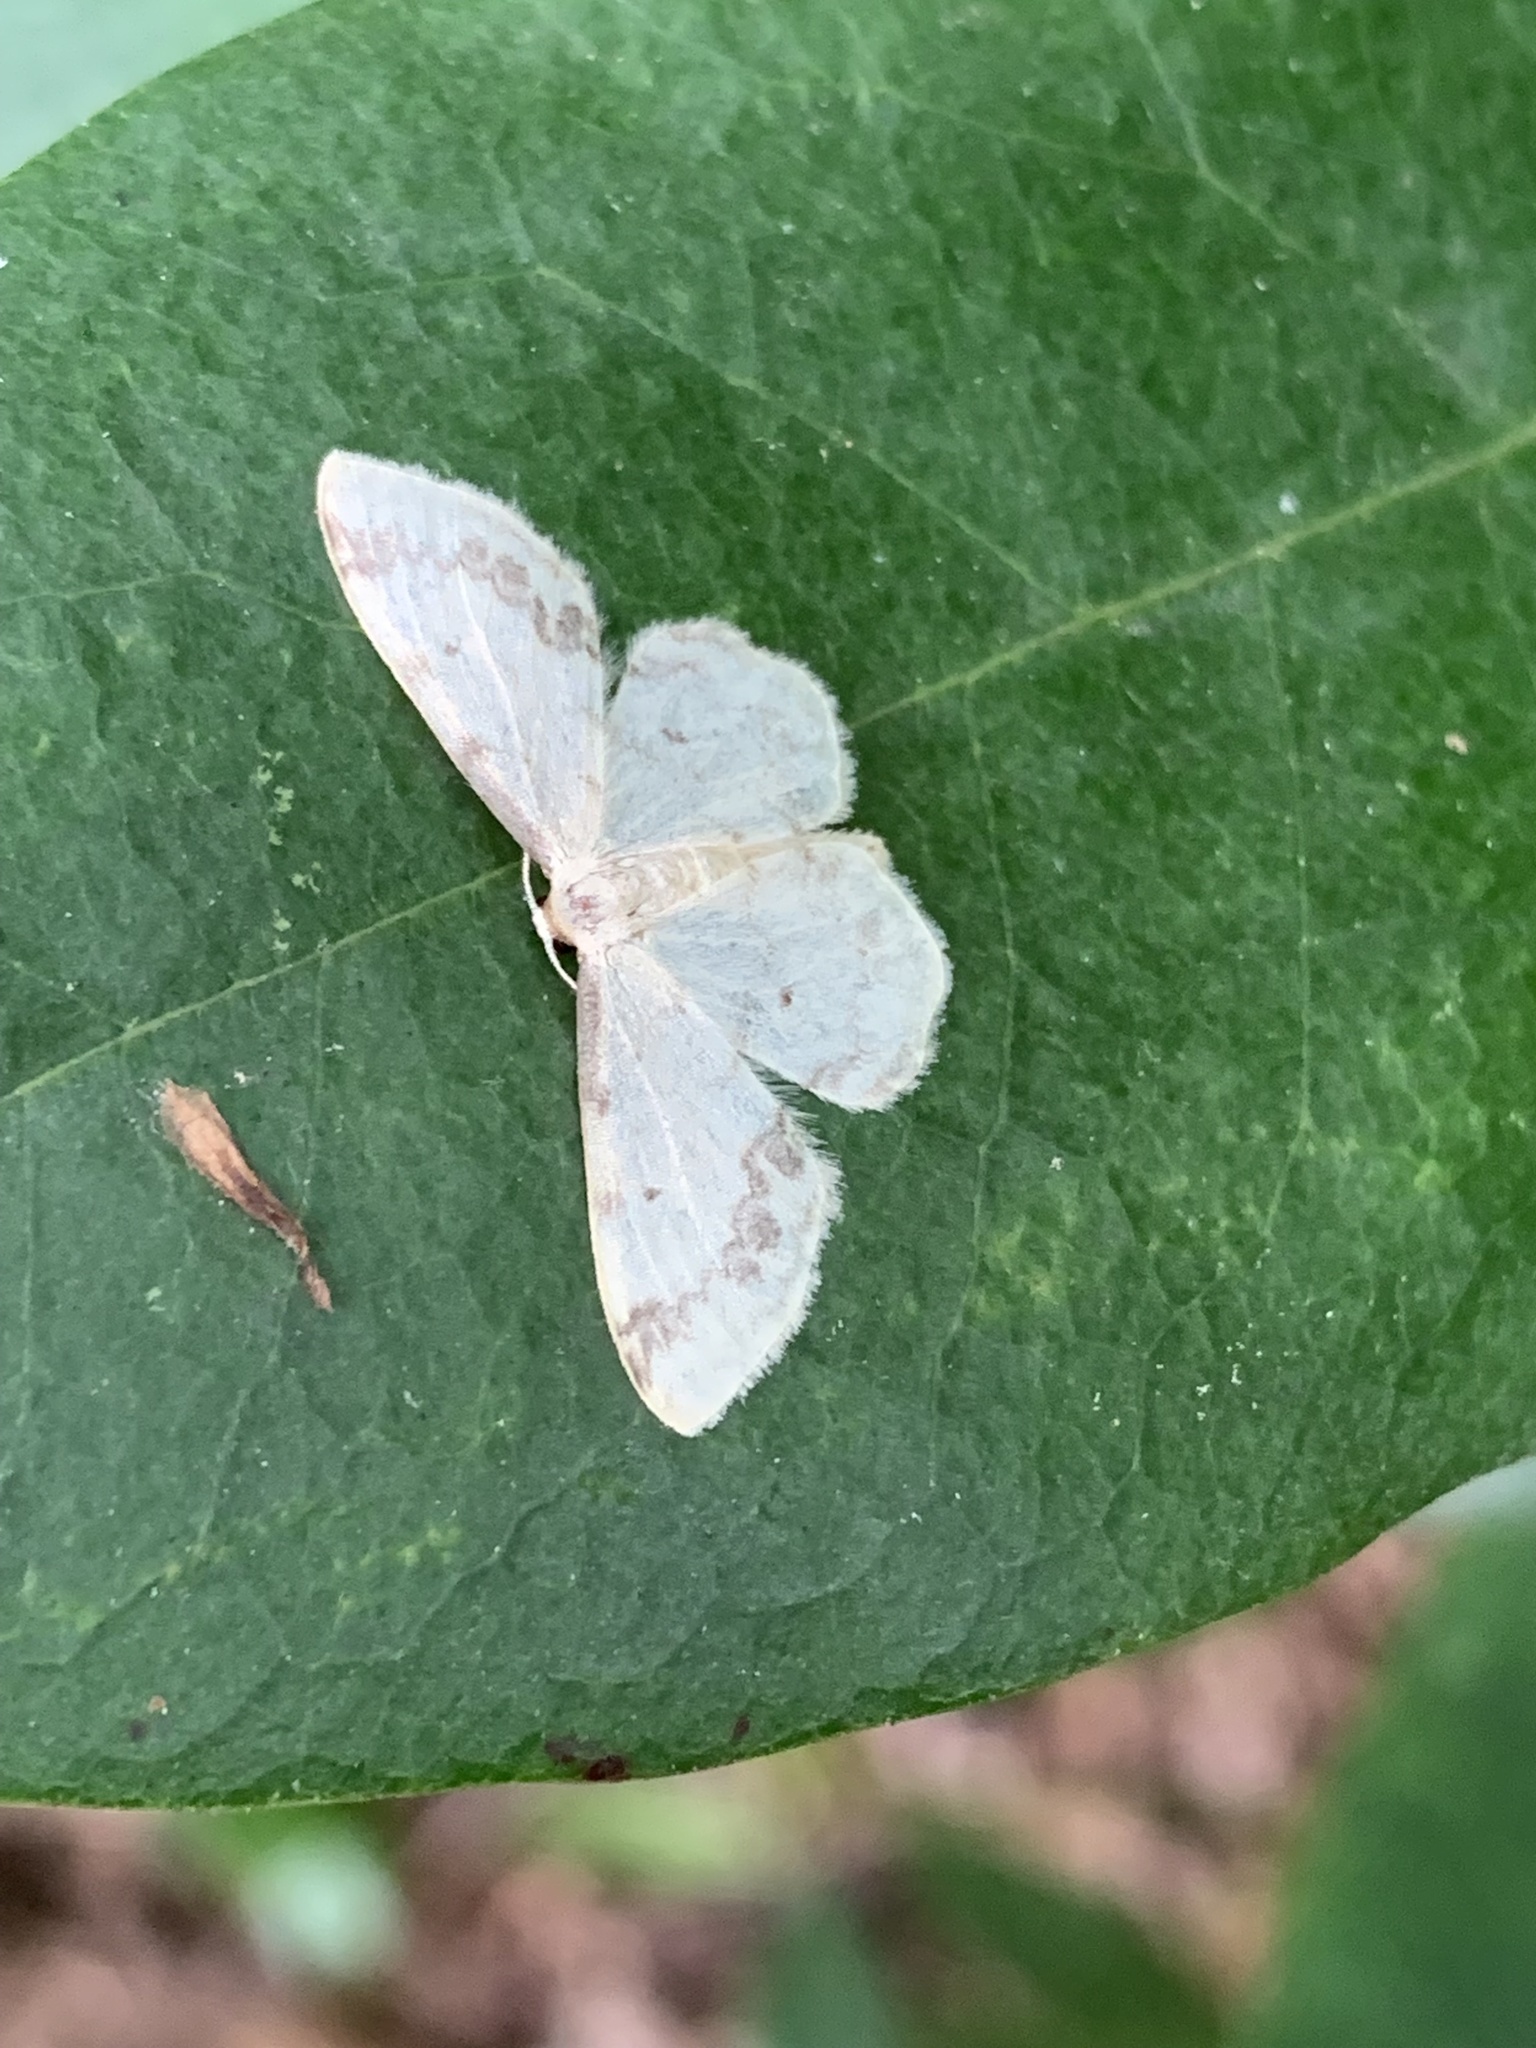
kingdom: Animalia
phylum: Arthropoda
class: Insecta
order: Lepidoptera
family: Geometridae
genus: Idaea
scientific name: Idaea trigeminata
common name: Treble brown spot
